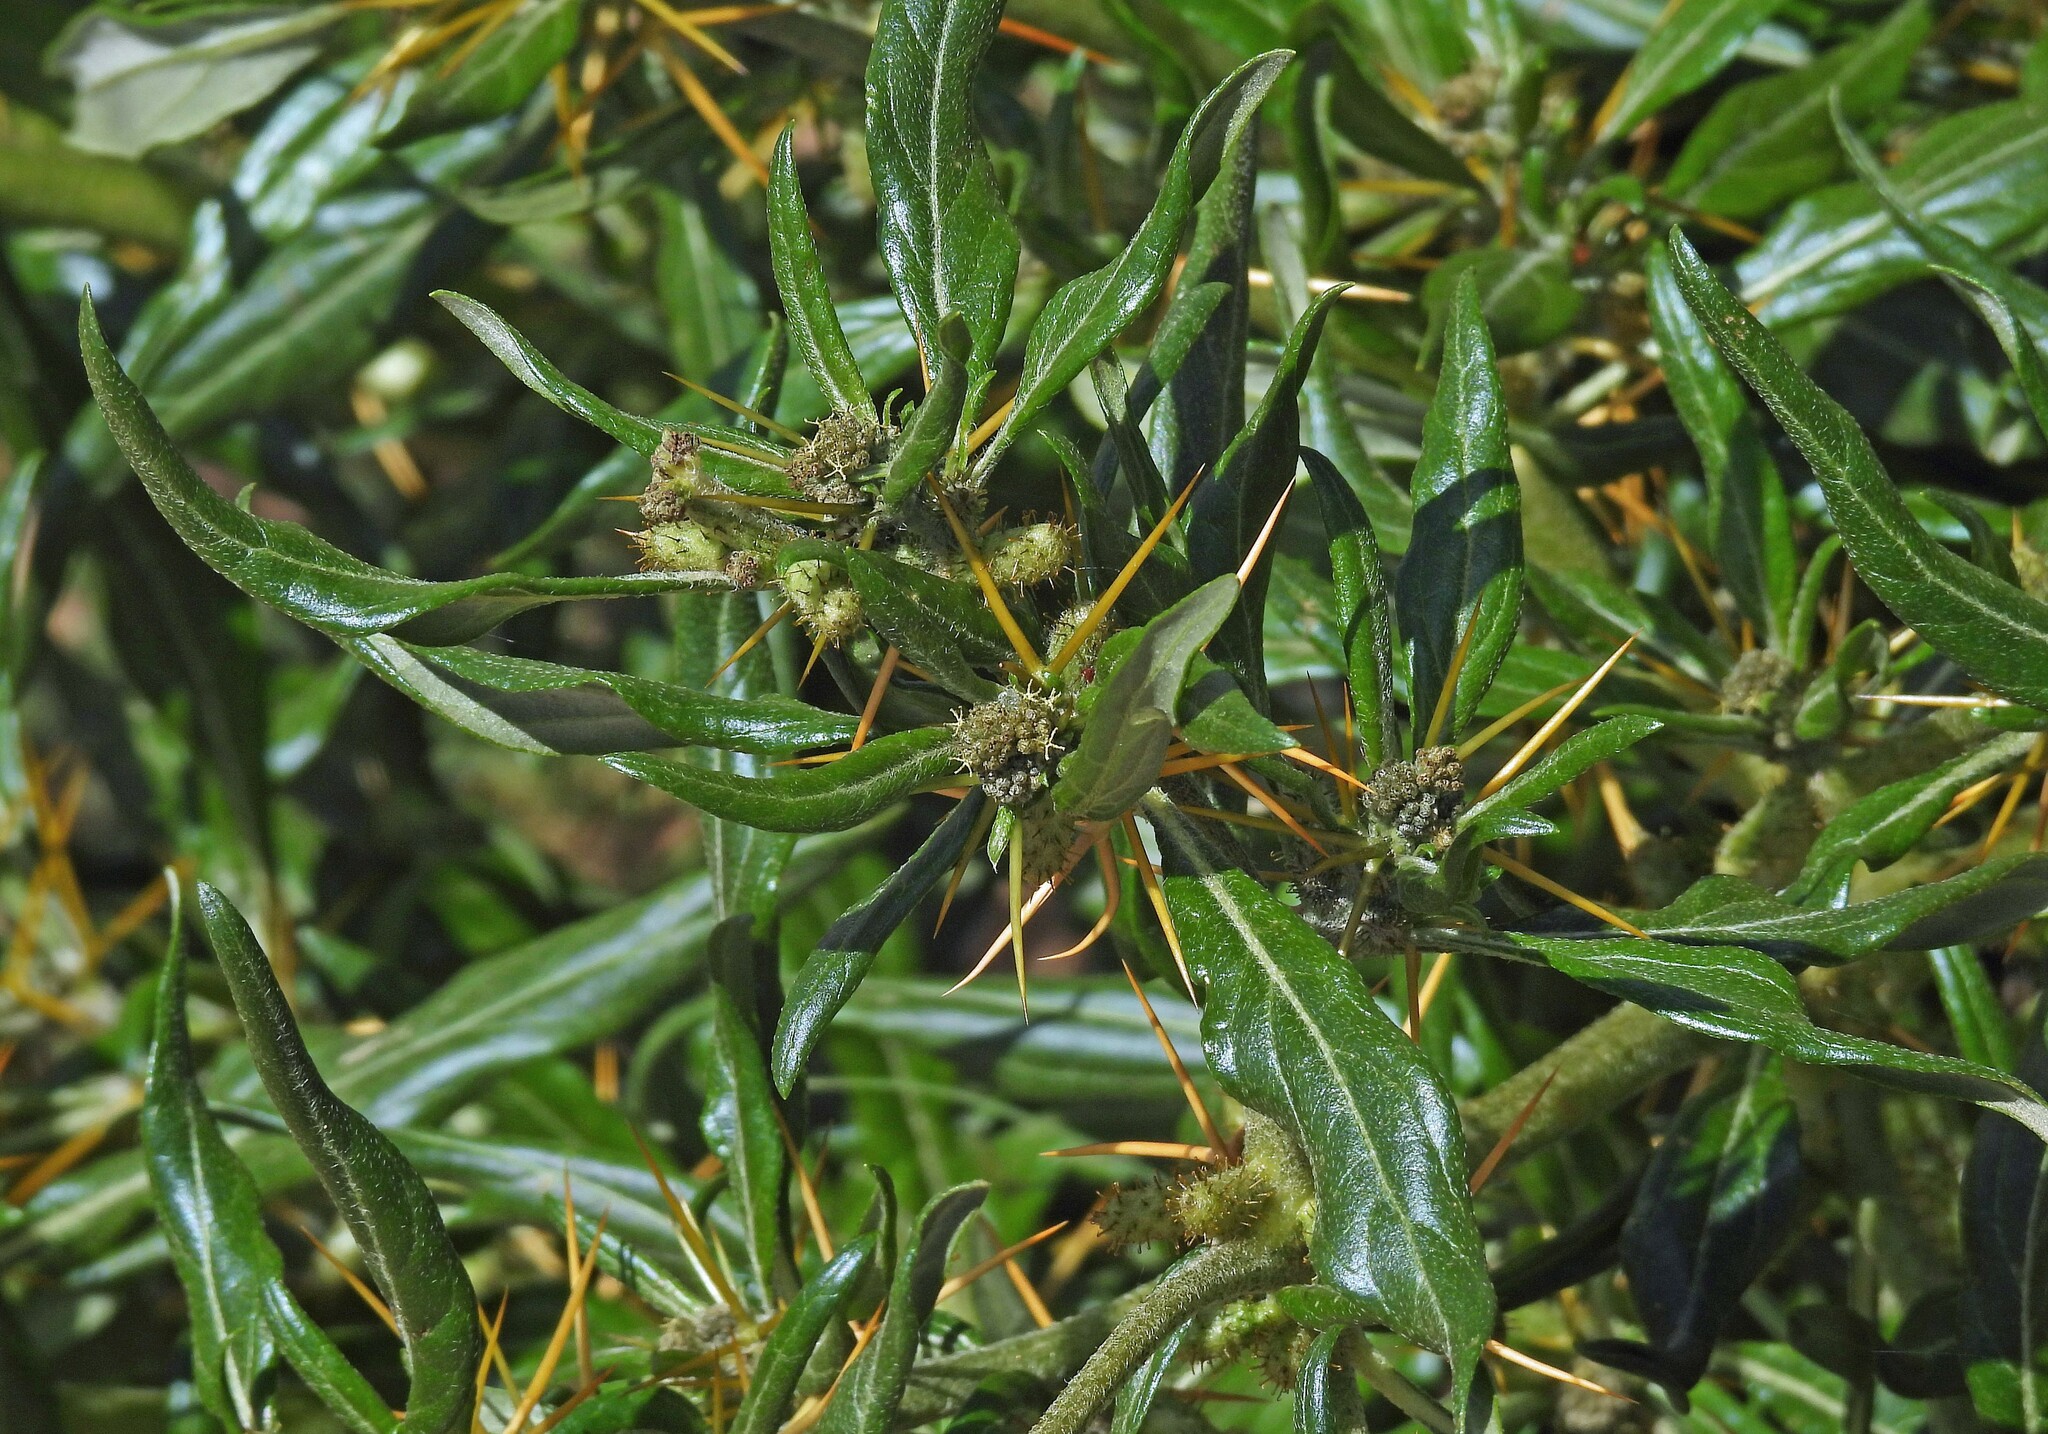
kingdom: Plantae
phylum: Tracheophyta
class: Magnoliopsida
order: Asterales
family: Asteraceae
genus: Xanthium
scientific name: Xanthium spinosum
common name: Spiny cocklebur
